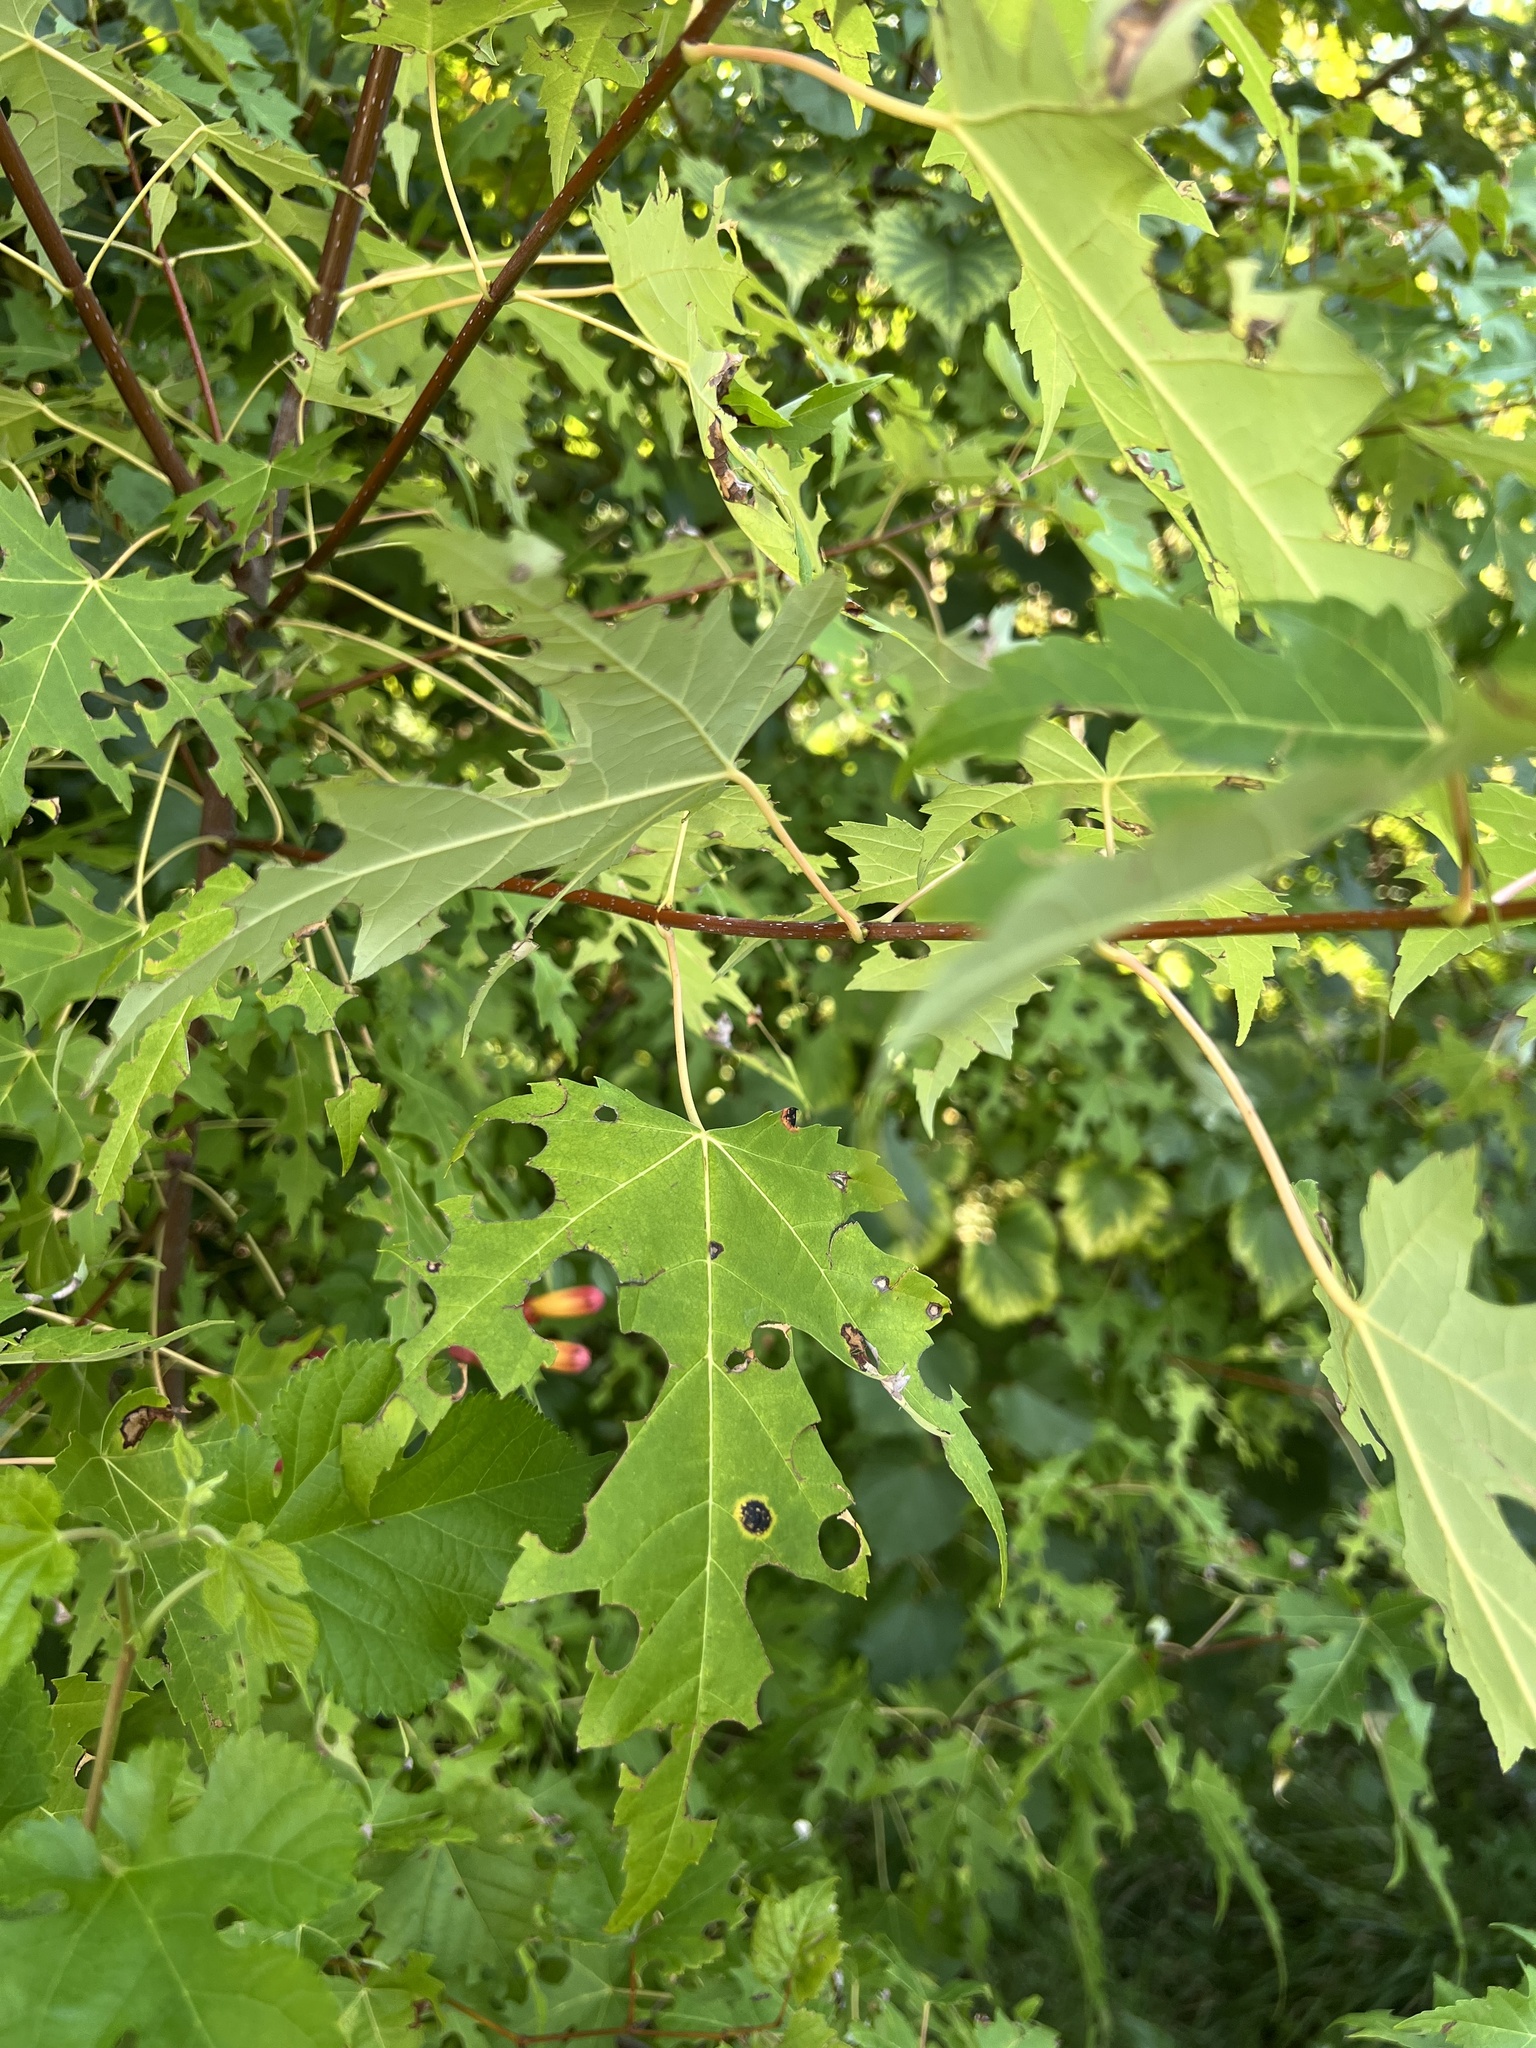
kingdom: Plantae
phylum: Tracheophyta
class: Magnoliopsida
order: Sapindales
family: Sapindaceae
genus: Acer
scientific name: Acer saccharinum
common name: Silver maple
